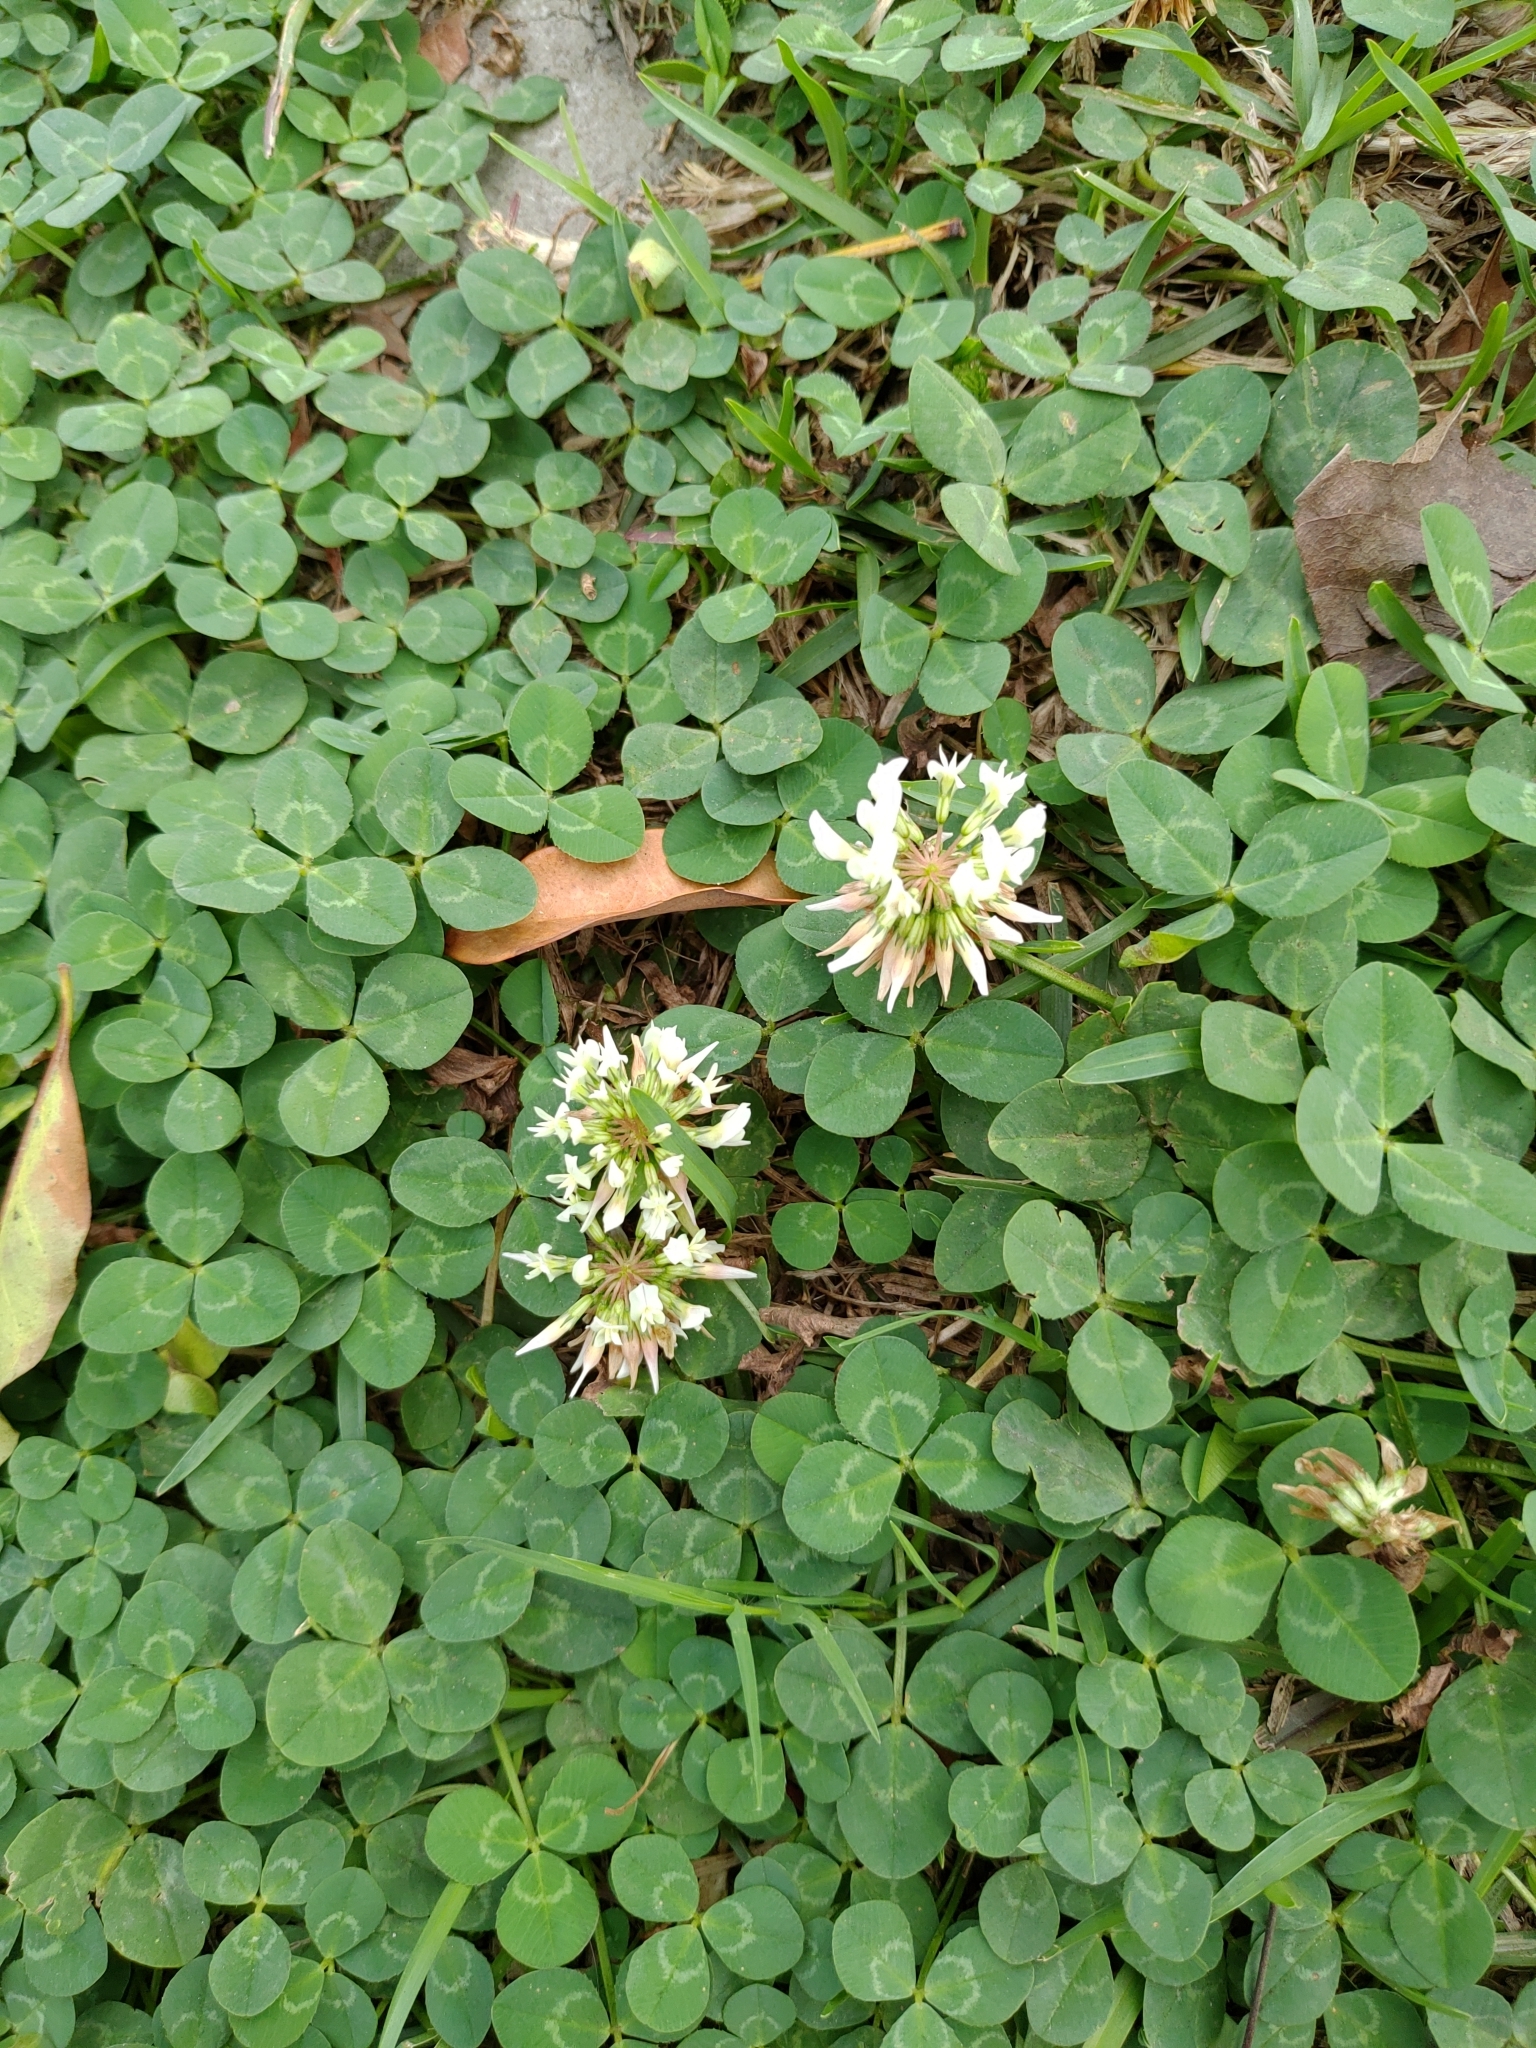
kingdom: Plantae
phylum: Tracheophyta
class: Magnoliopsida
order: Fabales
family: Fabaceae
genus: Trifolium
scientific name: Trifolium repens
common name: White clover
